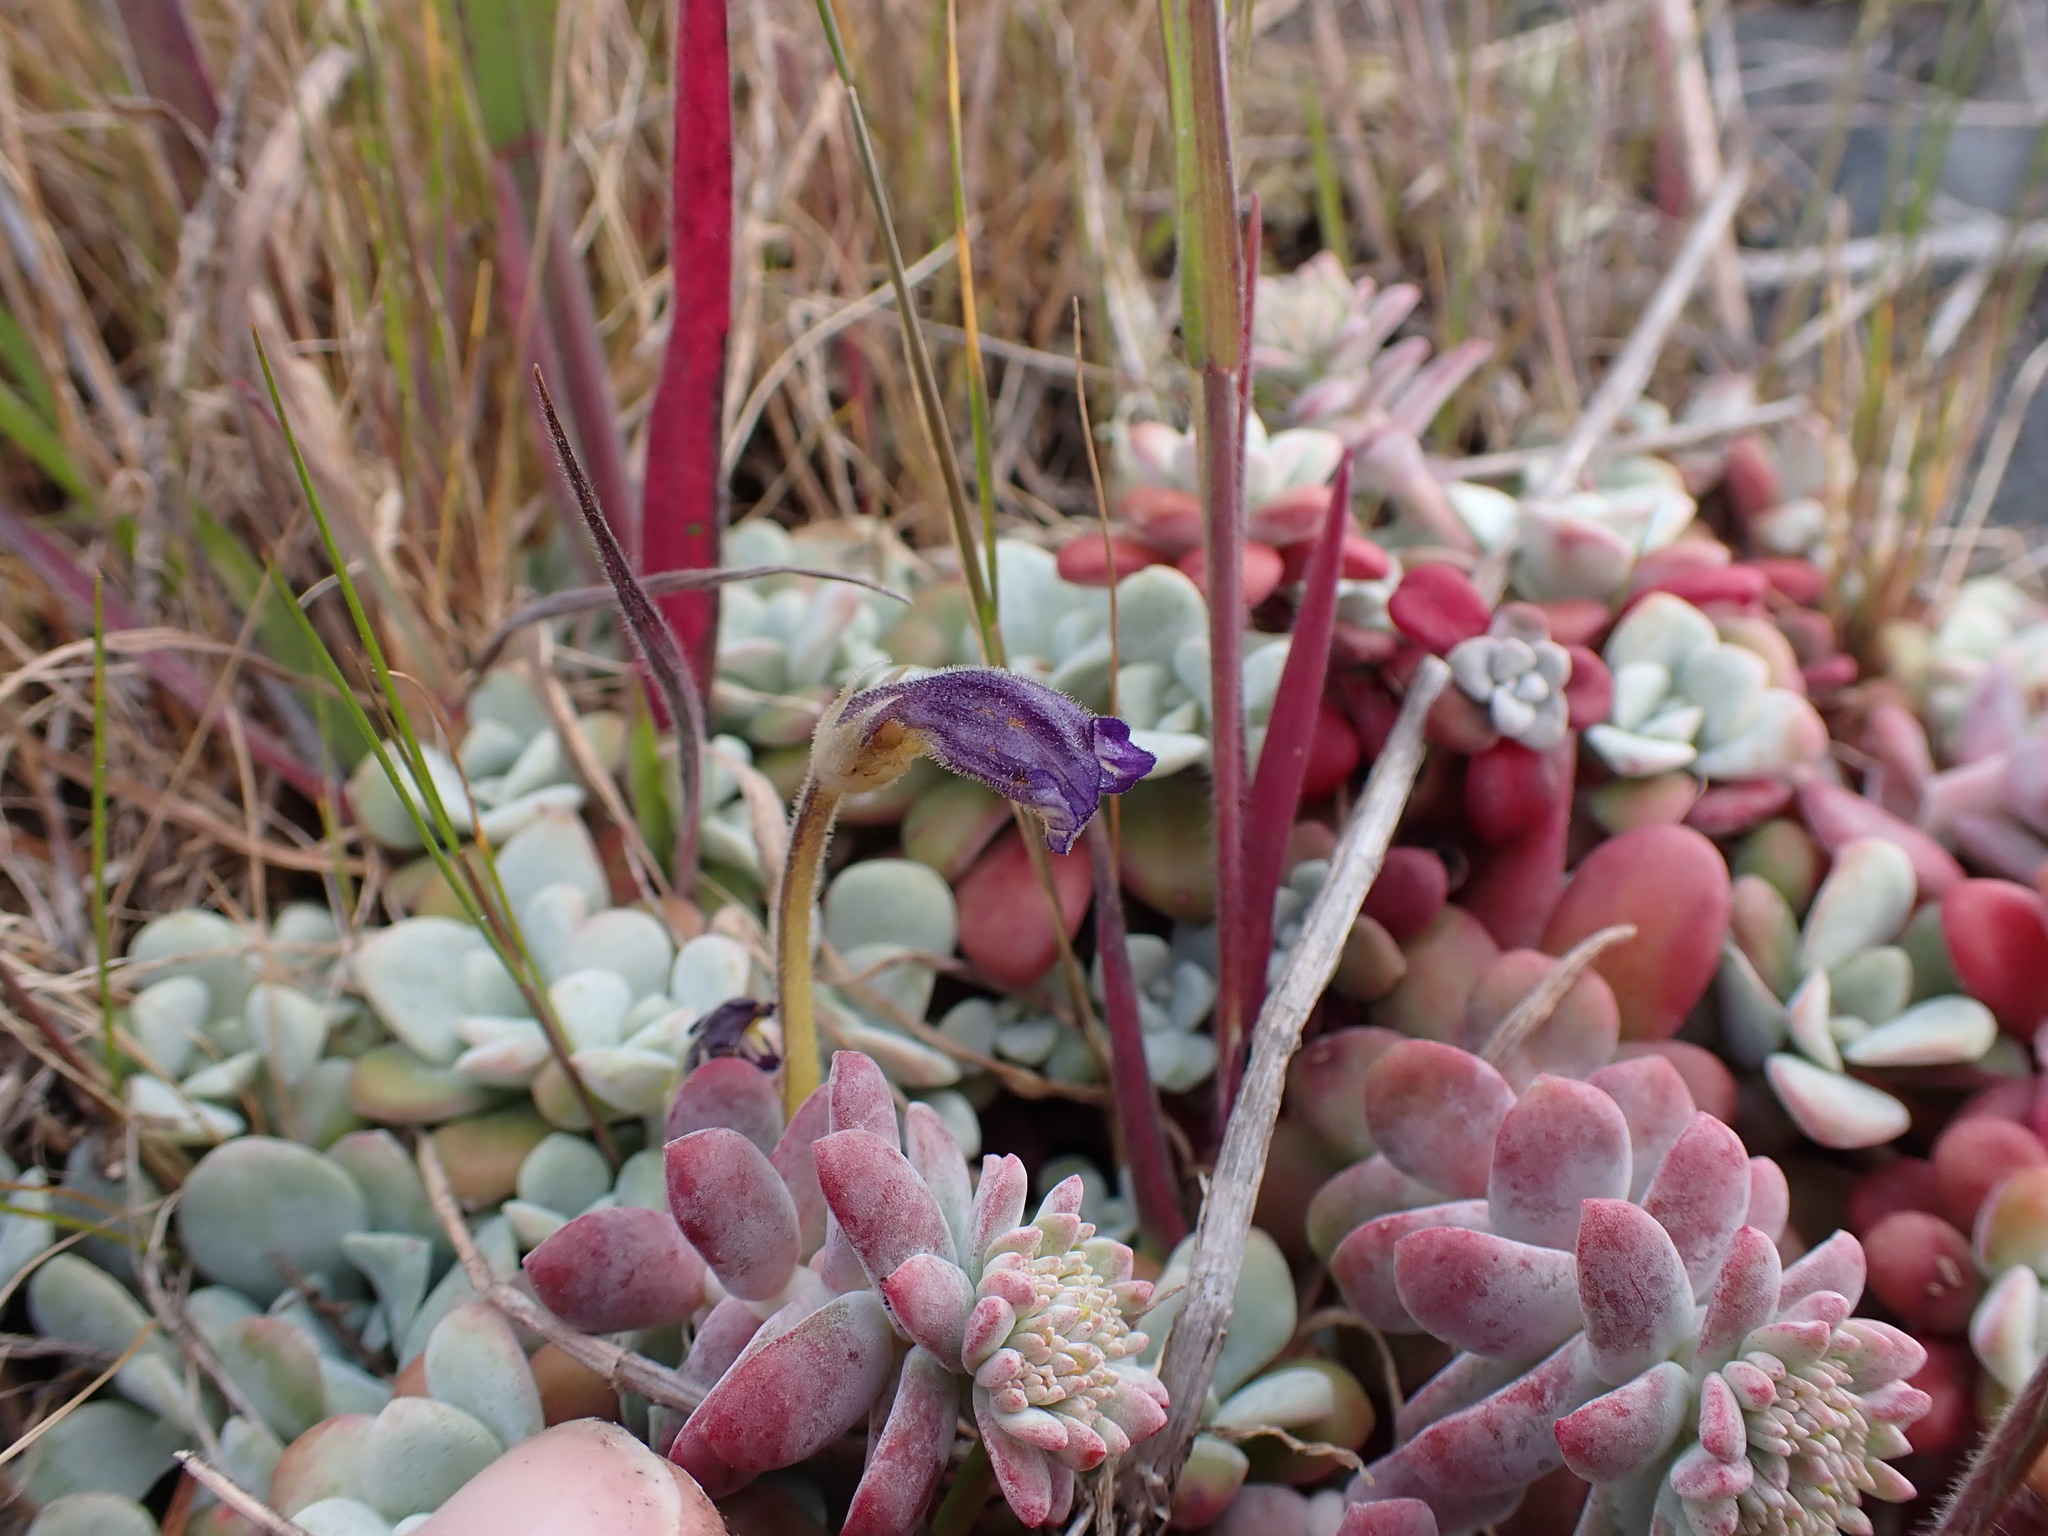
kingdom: Plantae
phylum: Tracheophyta
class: Magnoliopsida
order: Lamiales
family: Orobanchaceae
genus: Aphyllon
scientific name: Aphyllon uniflorum
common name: One-flowered broomrape
